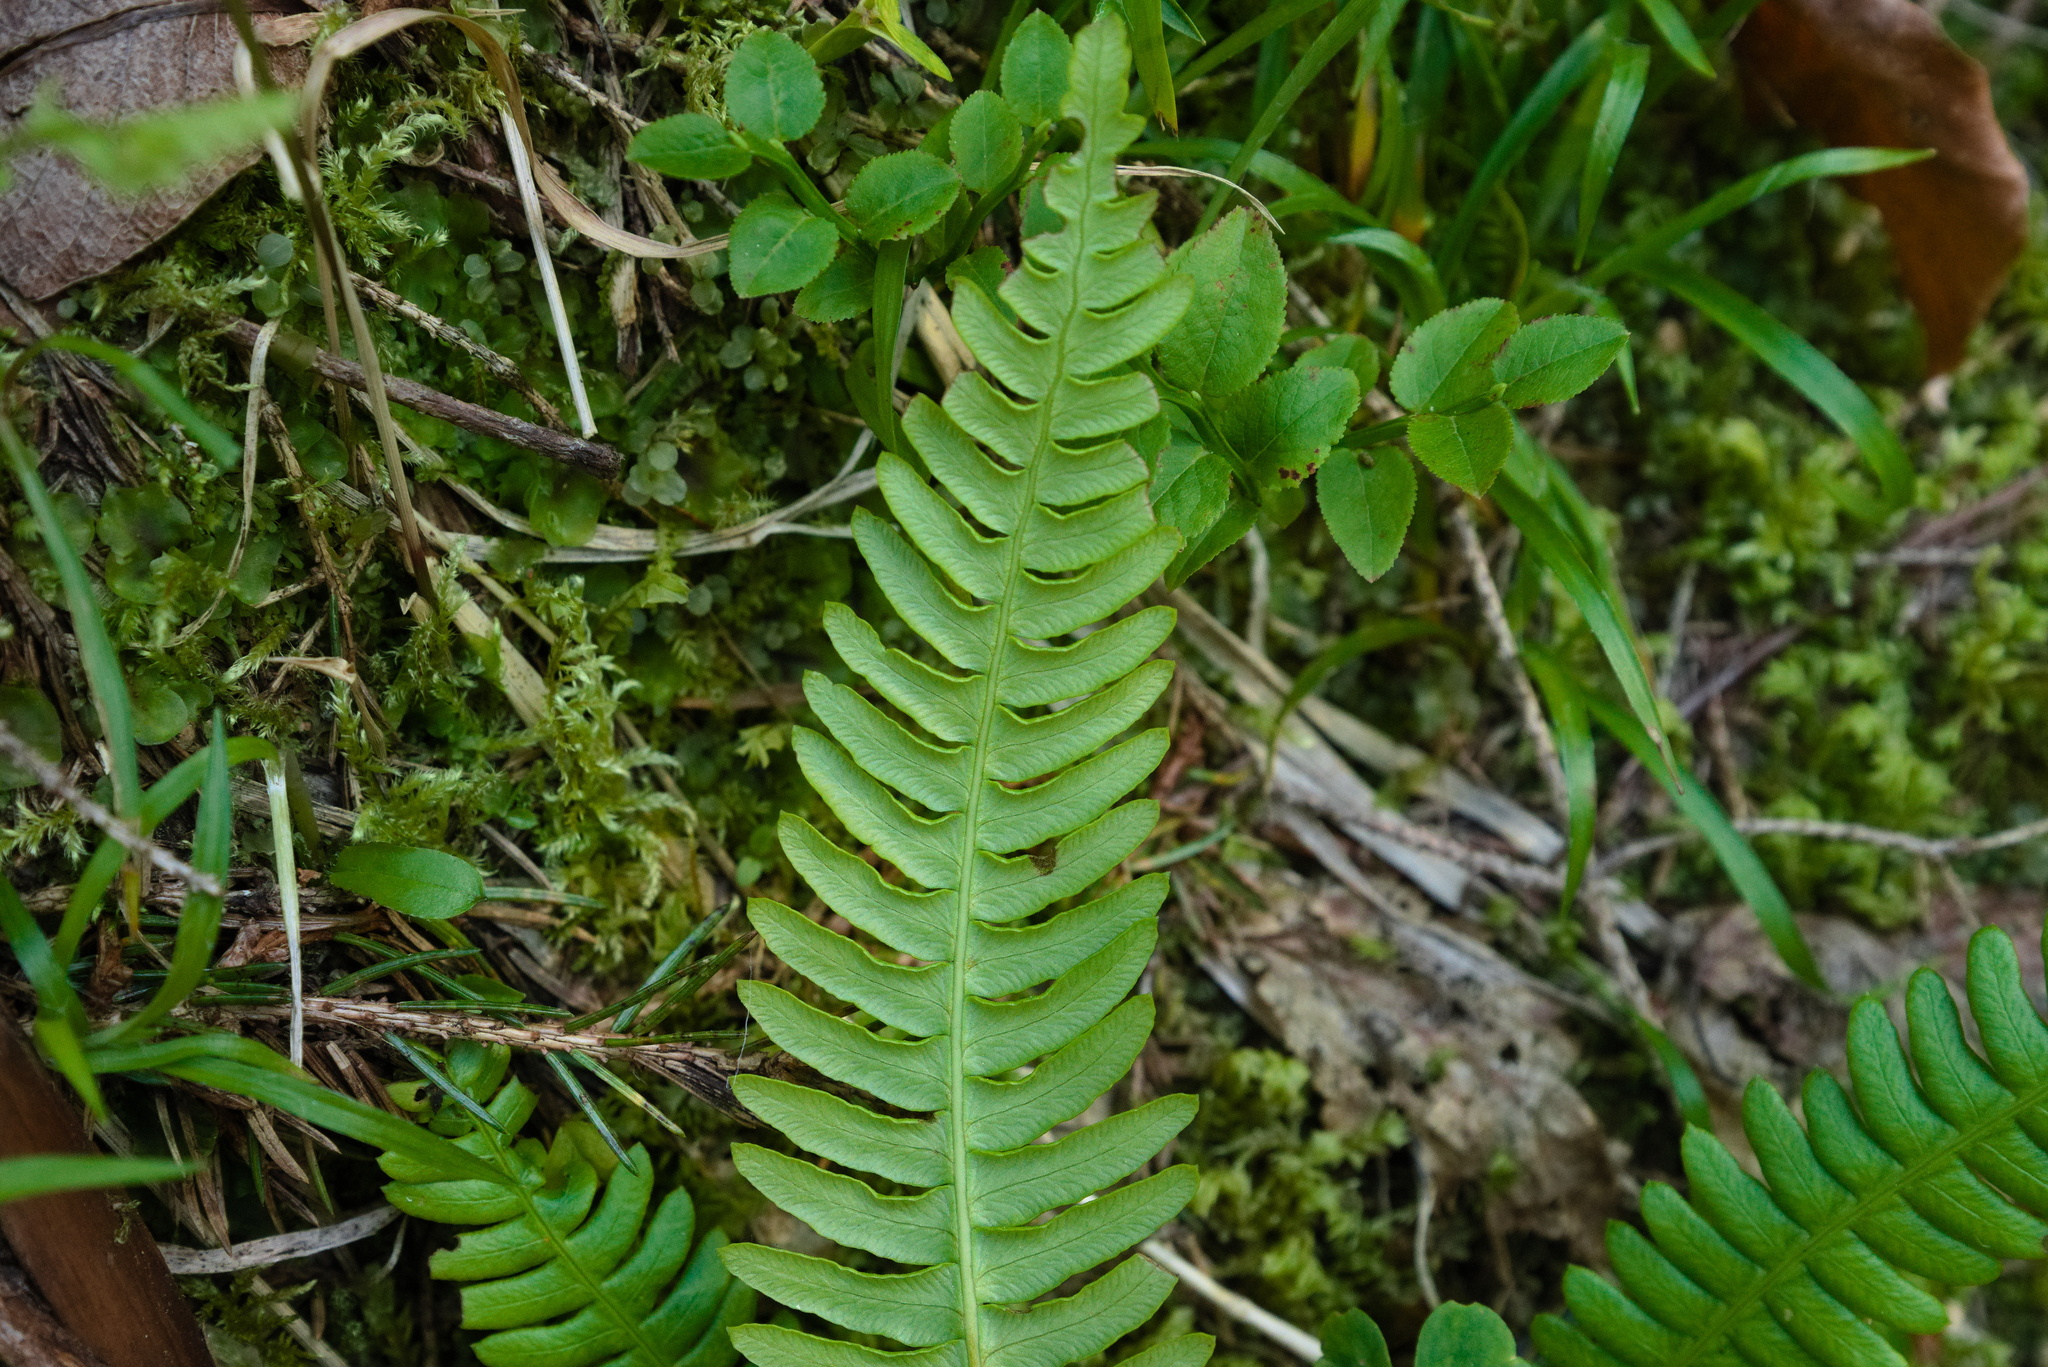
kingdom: Plantae
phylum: Tracheophyta
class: Polypodiopsida
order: Polypodiales
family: Blechnaceae
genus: Struthiopteris
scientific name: Struthiopteris spicant
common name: Deer fern
